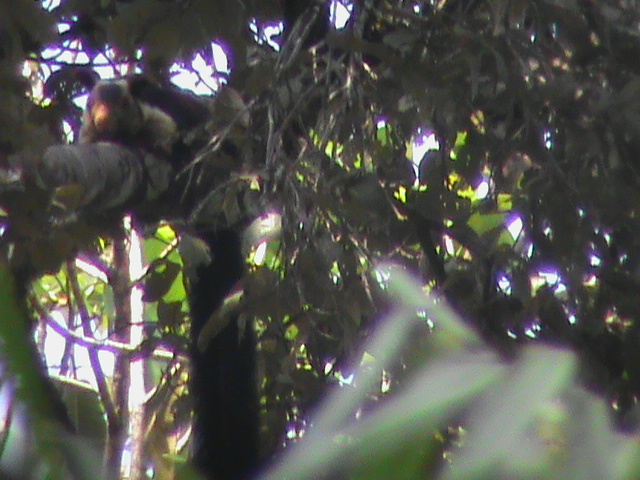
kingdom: Animalia
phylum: Chordata
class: Mammalia
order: Rodentia
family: Sciuridae
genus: Ratufa
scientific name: Ratufa indica
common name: Indian giant squirrel
